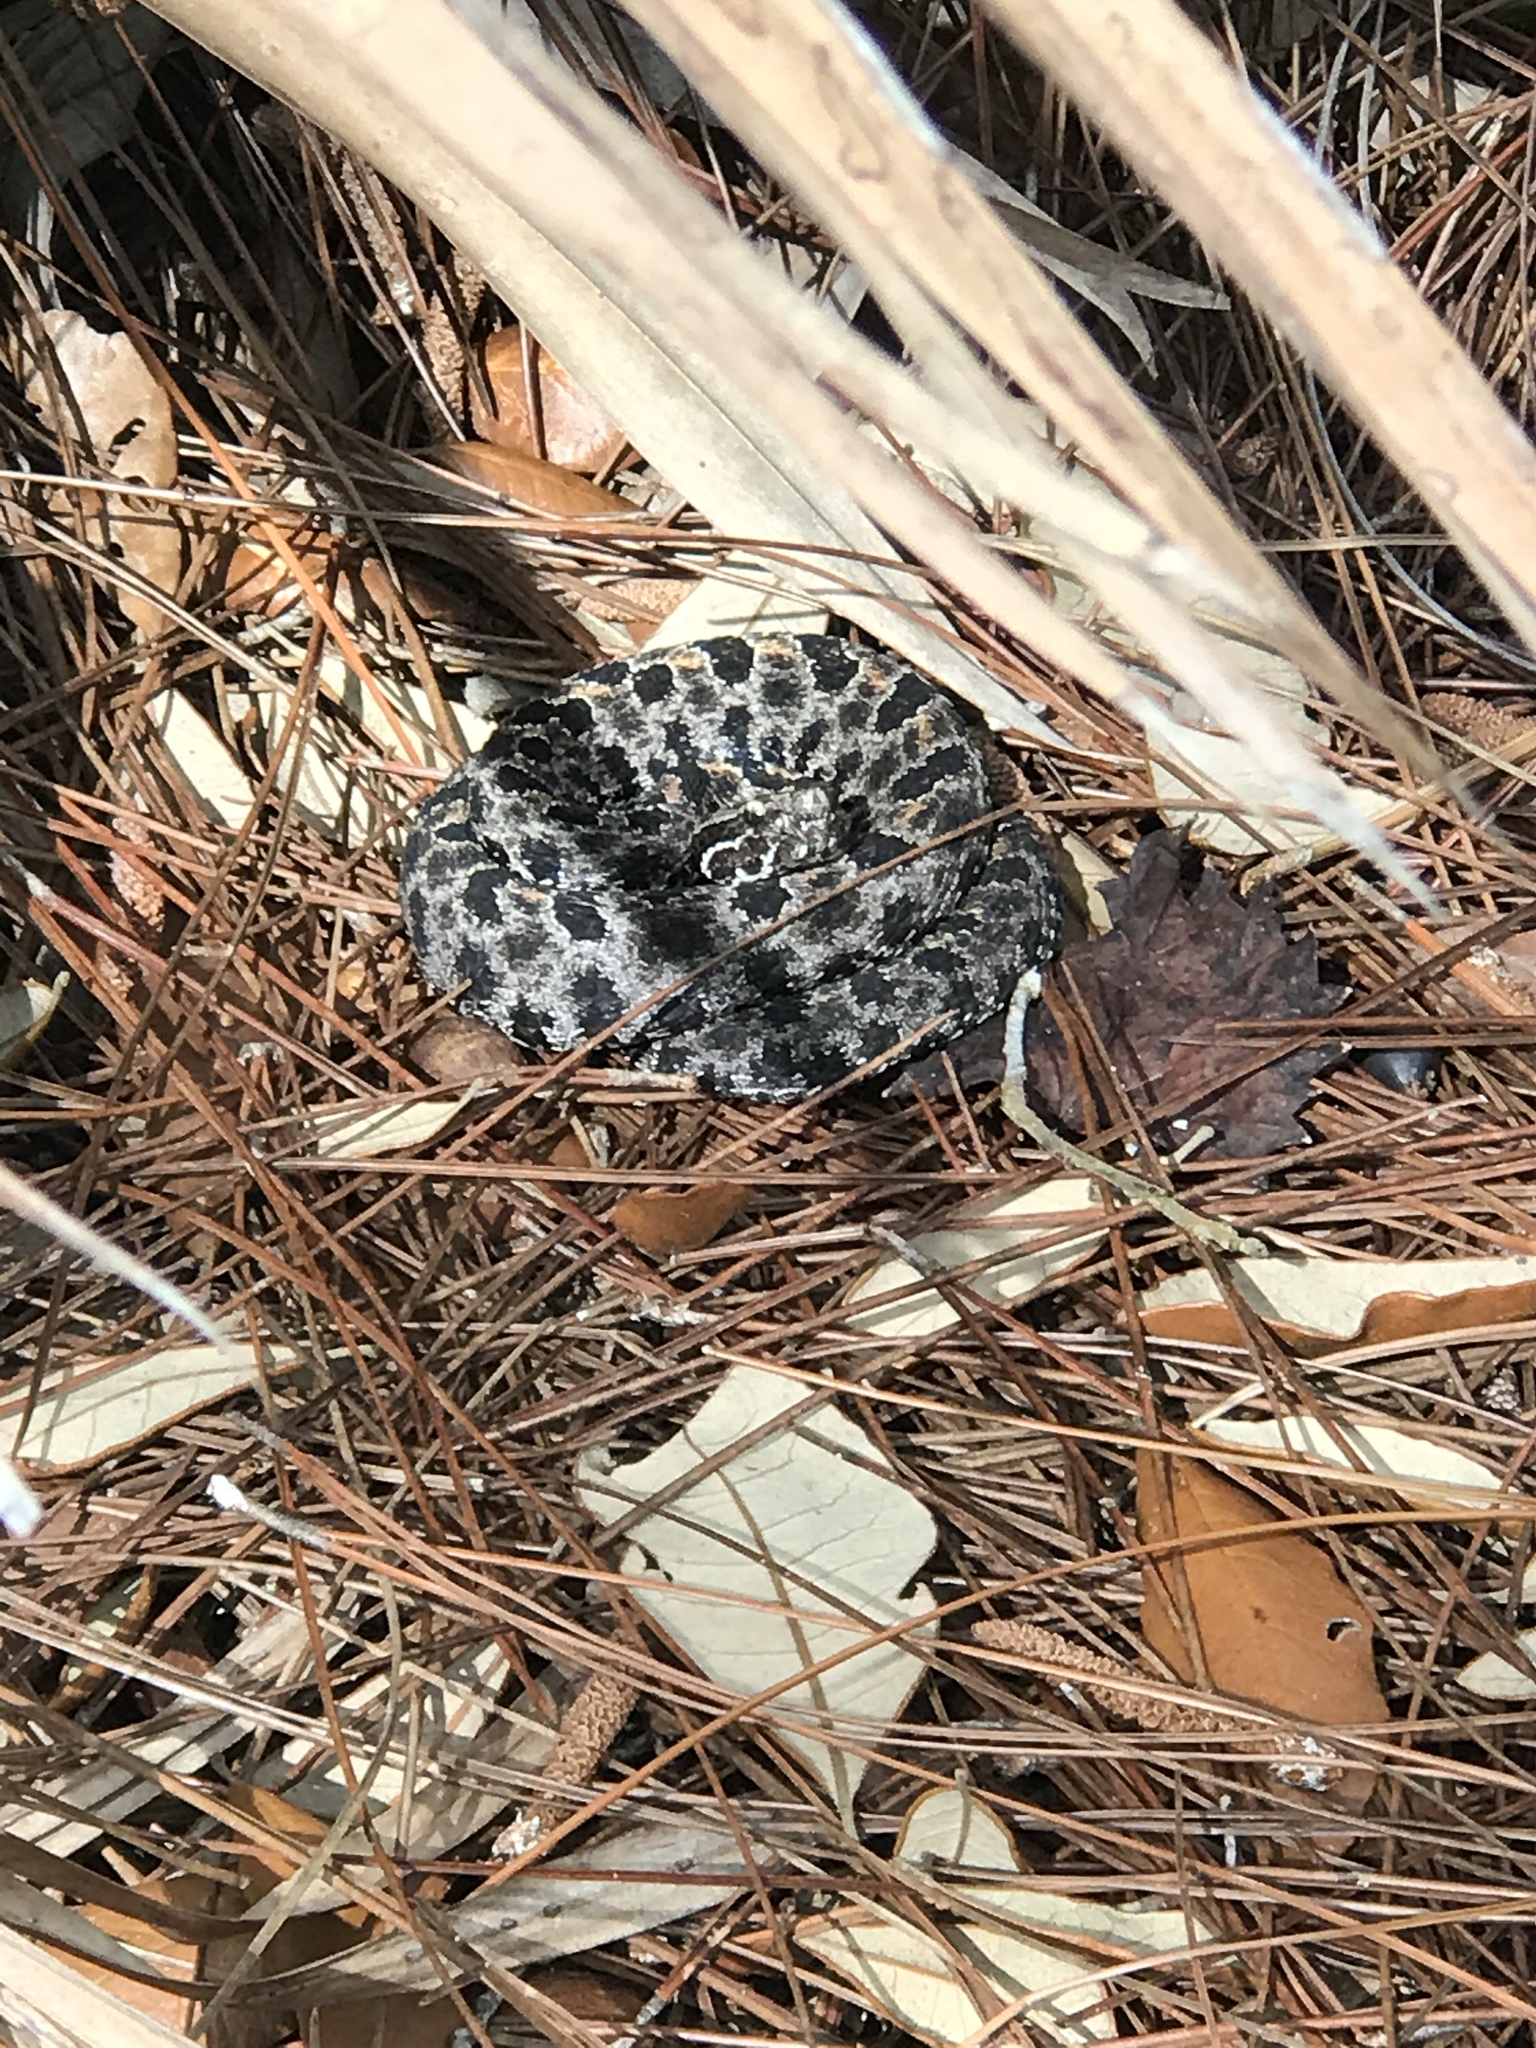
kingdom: Animalia
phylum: Chordata
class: Squamata
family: Viperidae
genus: Sistrurus
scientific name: Sistrurus miliarius
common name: Pygmy rattlesnake
